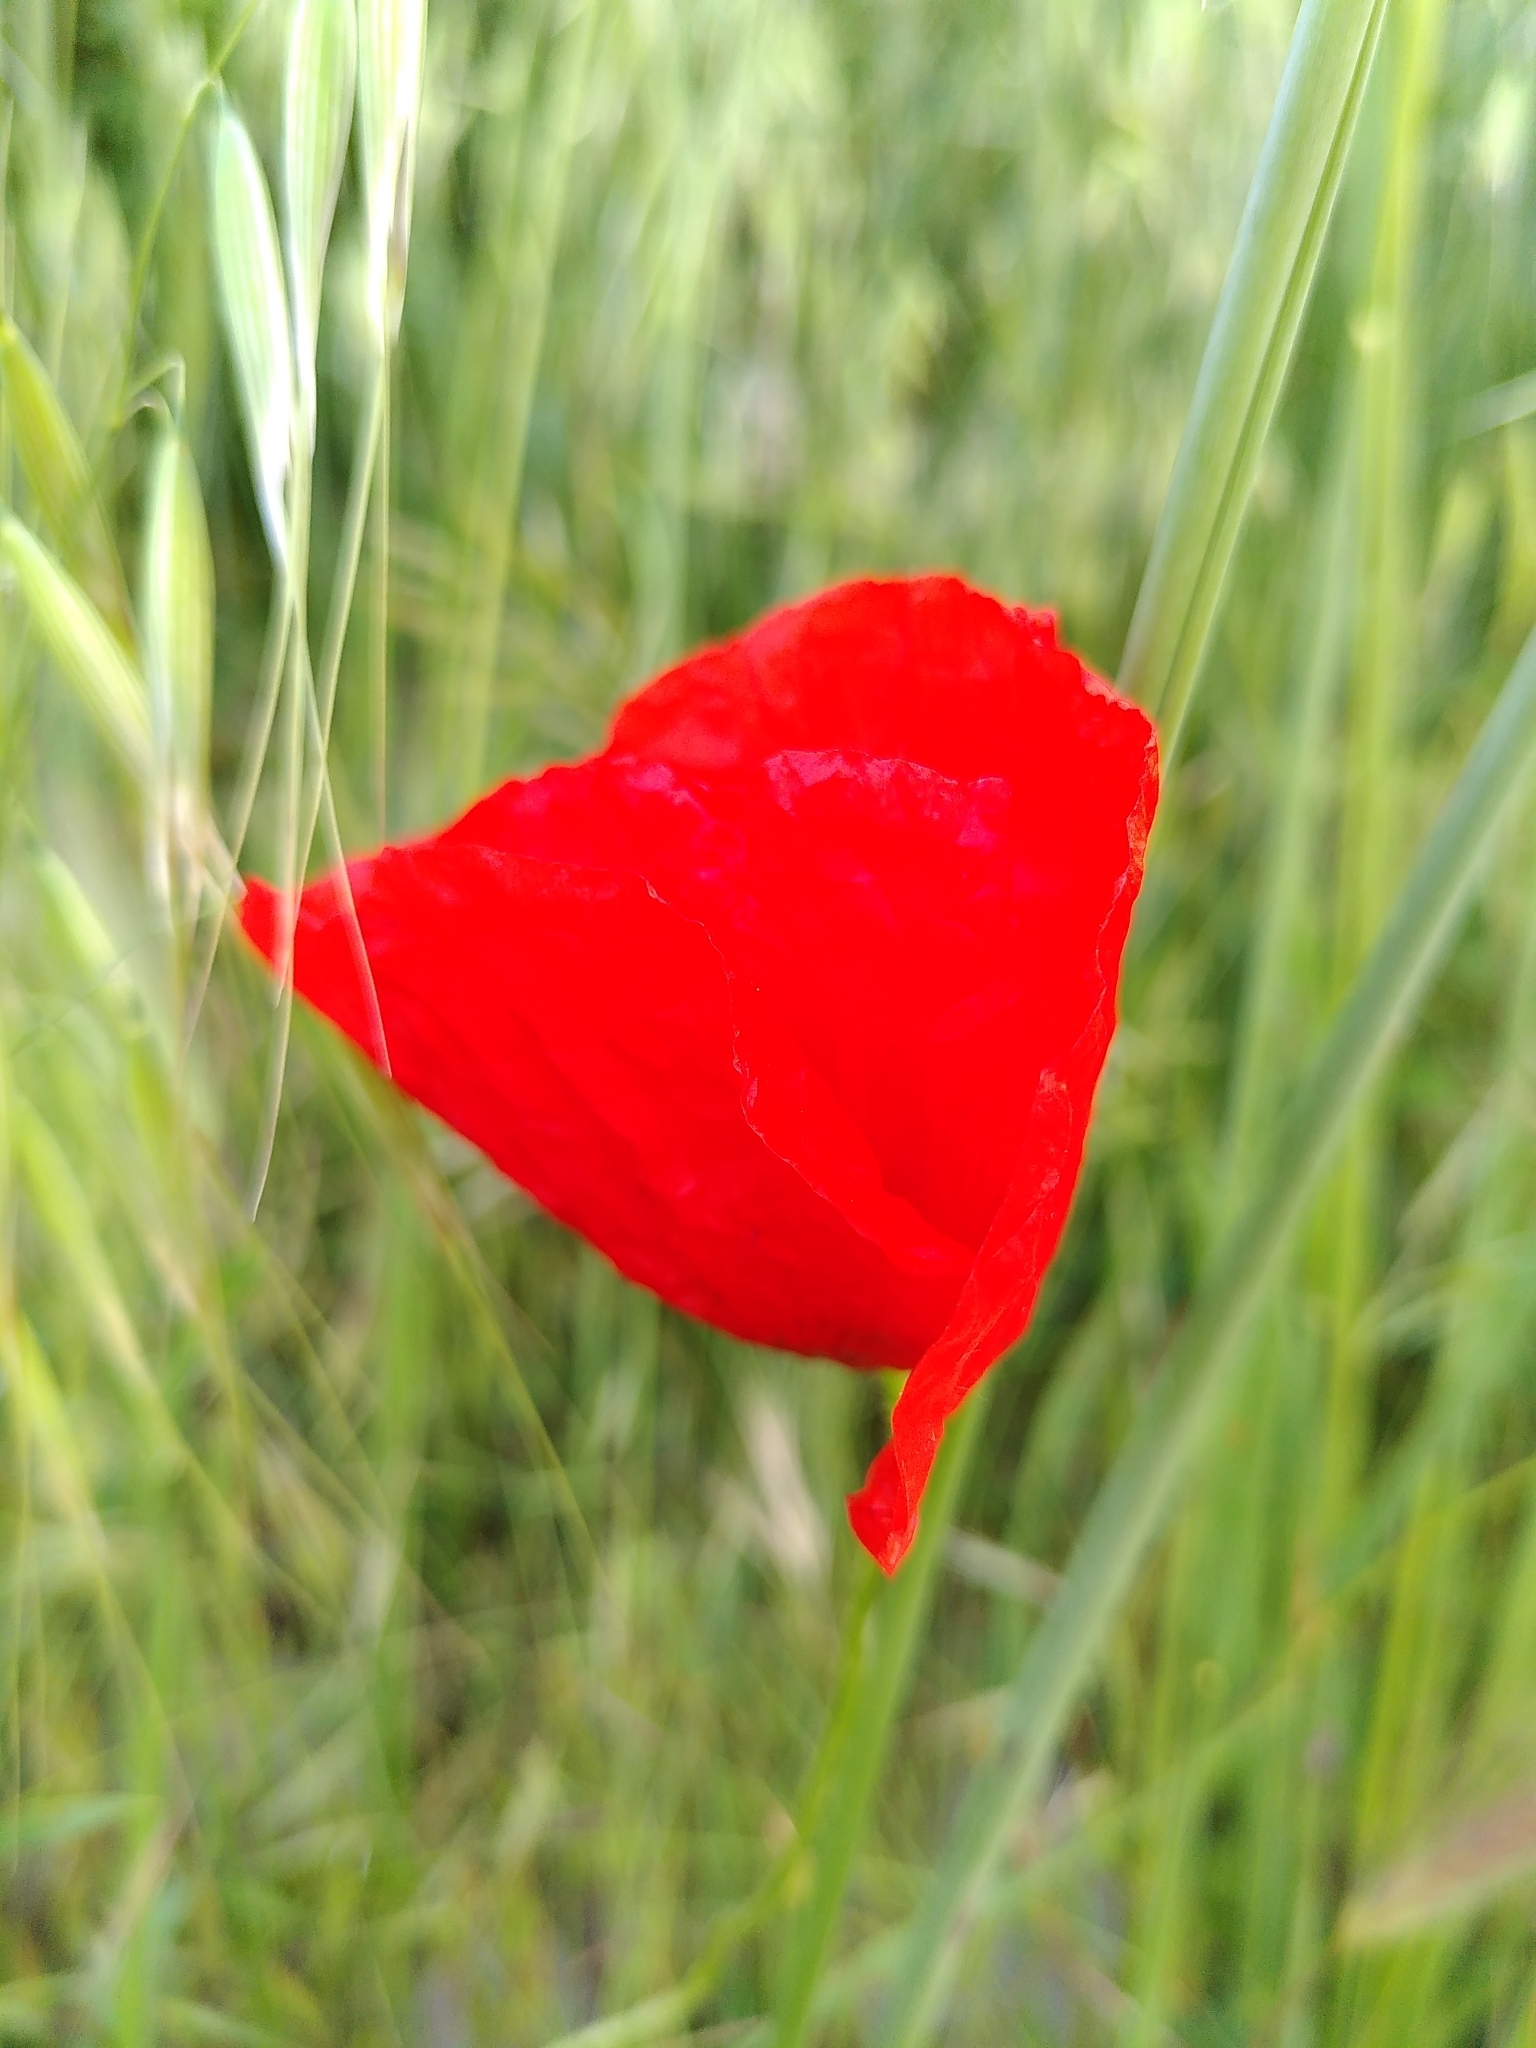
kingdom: Plantae
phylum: Tracheophyta
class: Magnoliopsida
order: Ranunculales
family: Papaveraceae
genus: Papaver
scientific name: Papaver rhoeas
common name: Corn poppy
